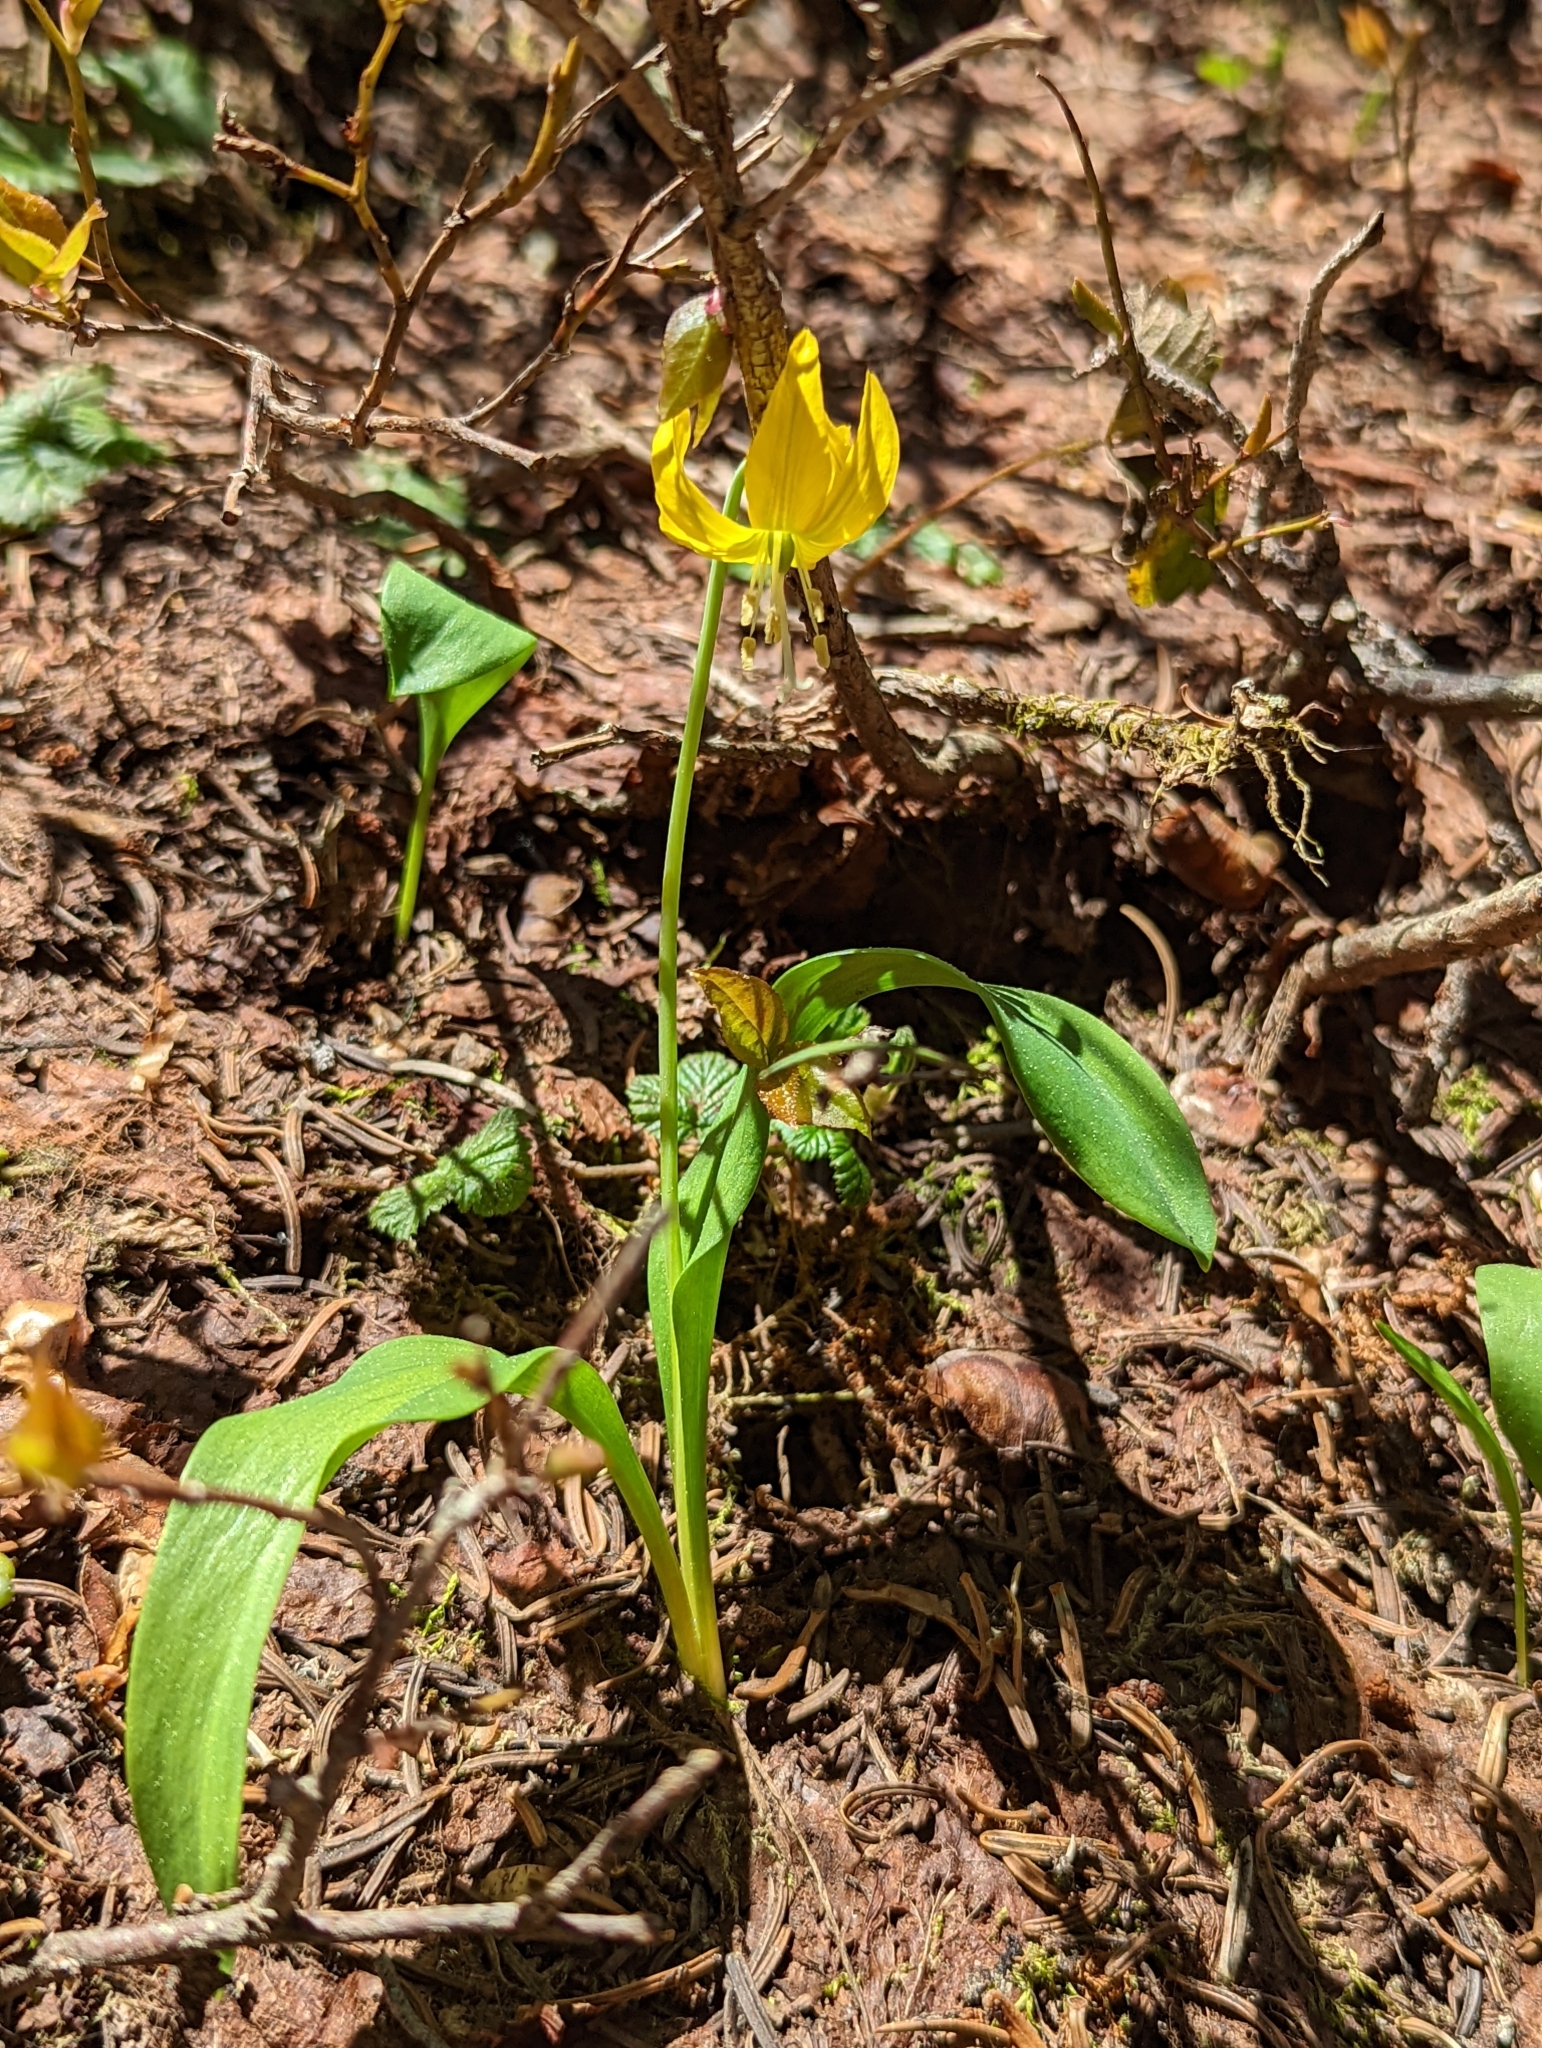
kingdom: Plantae
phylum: Tracheophyta
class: Liliopsida
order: Liliales
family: Liliaceae
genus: Erythronium
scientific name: Erythronium grandiflorum
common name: Avalanche-lily
